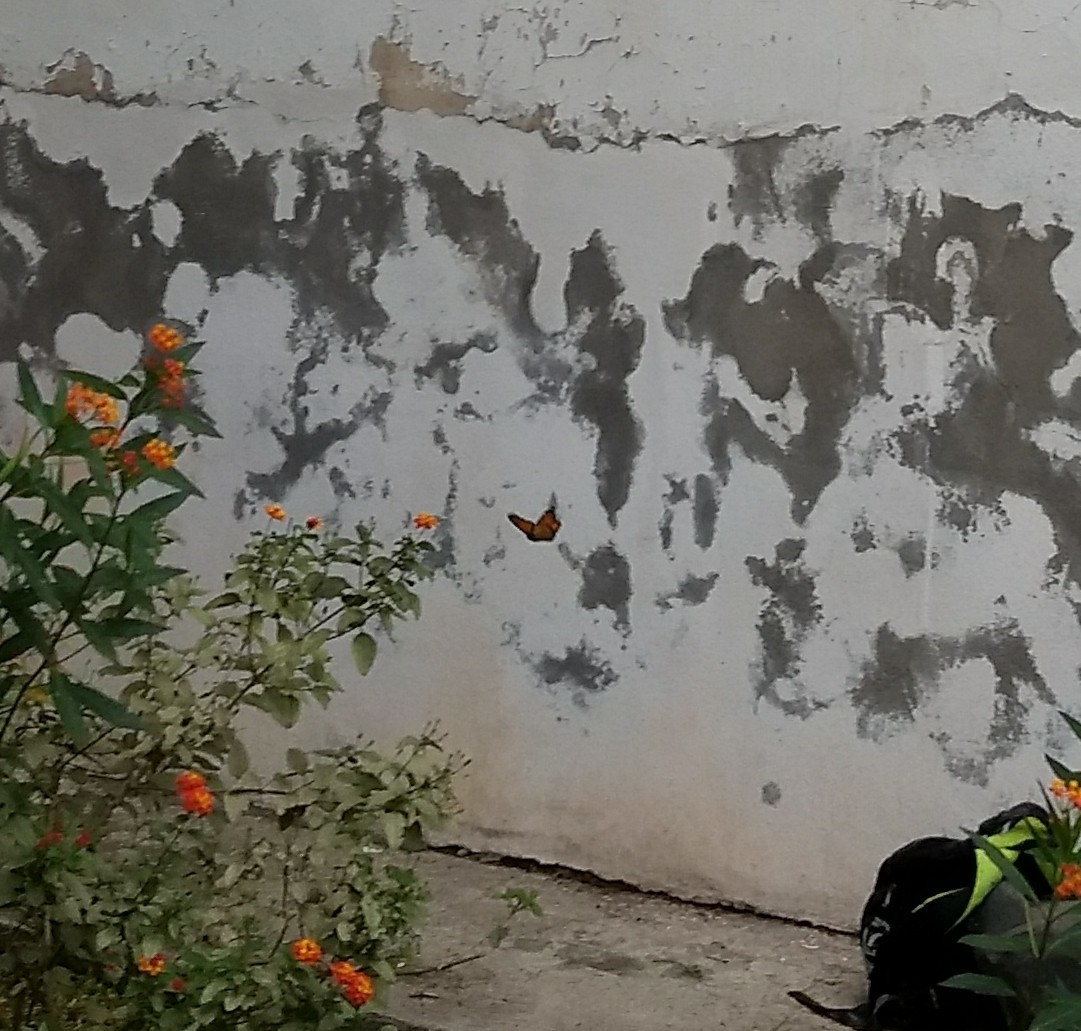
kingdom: Animalia
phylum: Arthropoda
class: Insecta
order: Lepidoptera
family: Nymphalidae
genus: Danaus
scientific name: Danaus plexippus
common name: Monarch
